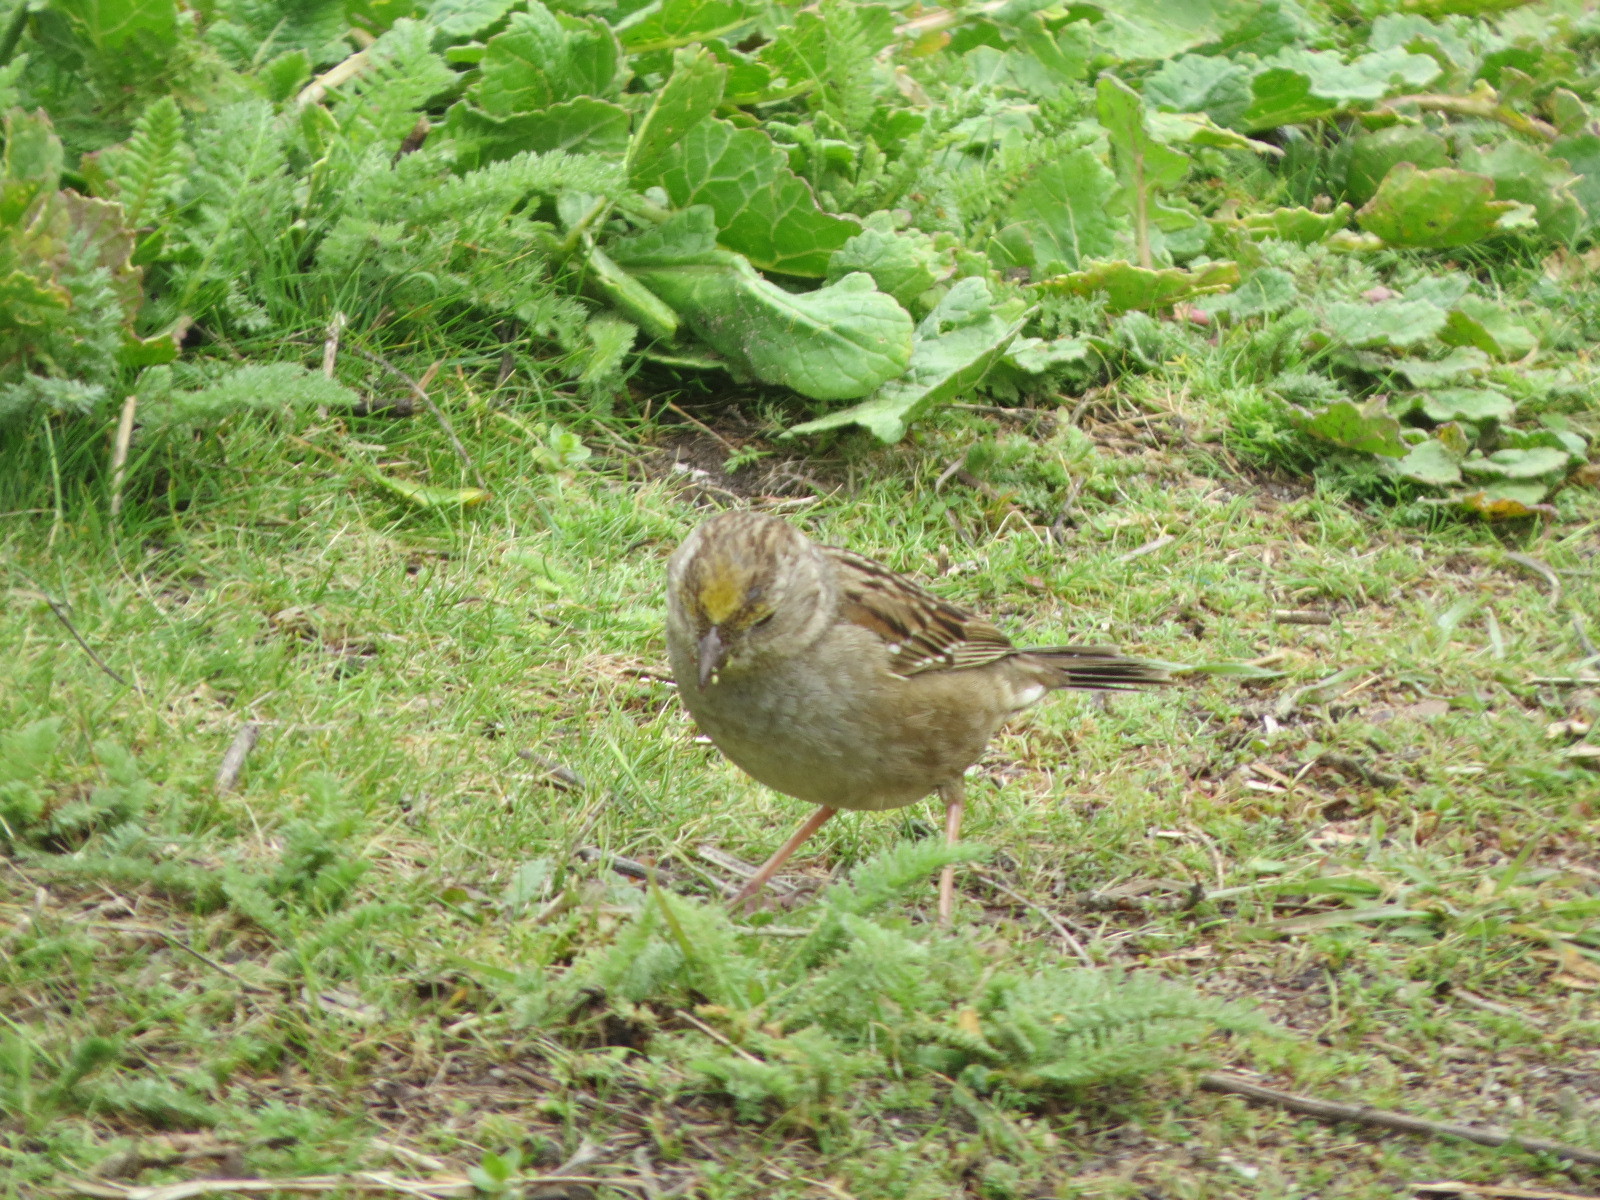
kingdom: Animalia
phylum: Chordata
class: Aves
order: Passeriformes
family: Passerellidae
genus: Zonotrichia
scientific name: Zonotrichia atricapilla
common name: Golden-crowned sparrow
